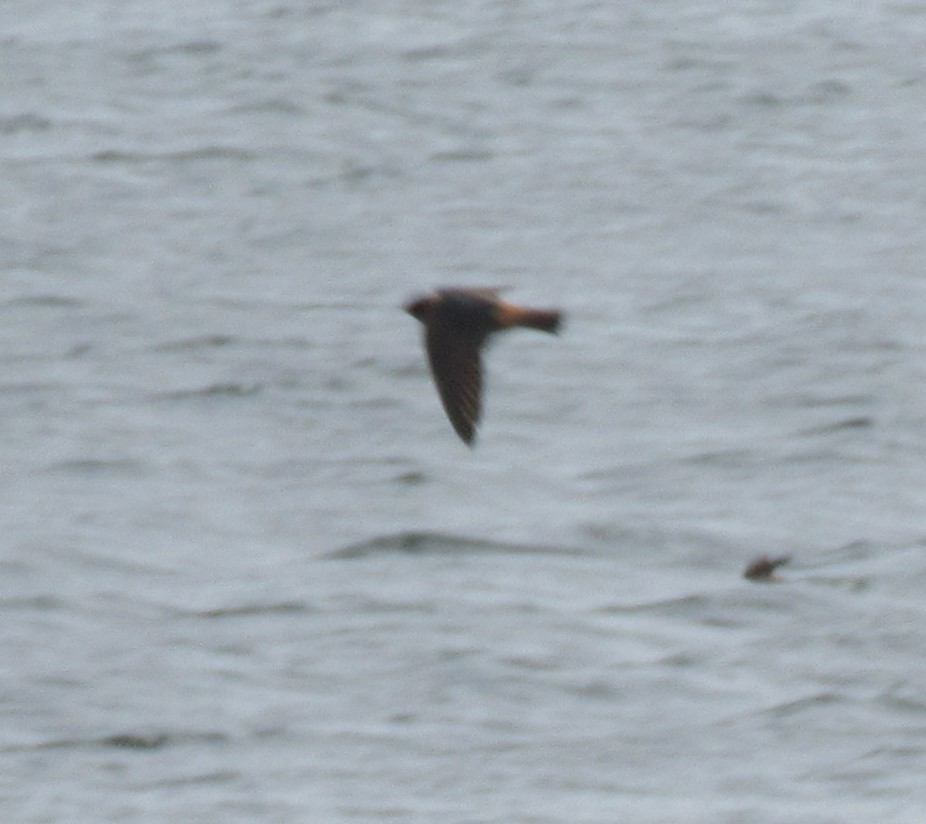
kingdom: Animalia
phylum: Chordata
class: Aves
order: Passeriformes
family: Hirundinidae
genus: Petrochelidon
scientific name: Petrochelidon pyrrhonota
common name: American cliff swallow
